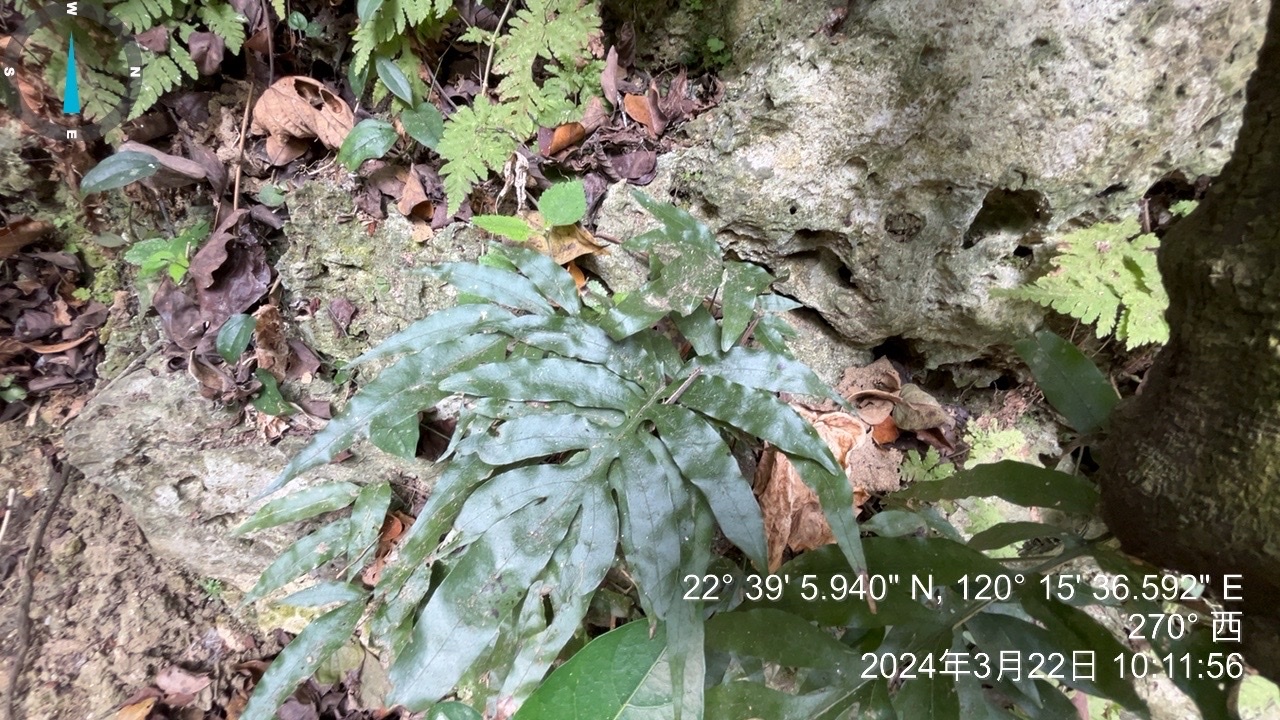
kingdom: Plantae
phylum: Tracheophyta
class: Polypodiopsida
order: Polypodiales
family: Polypodiaceae
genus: Leptochilus
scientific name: Leptochilus ellipticus
